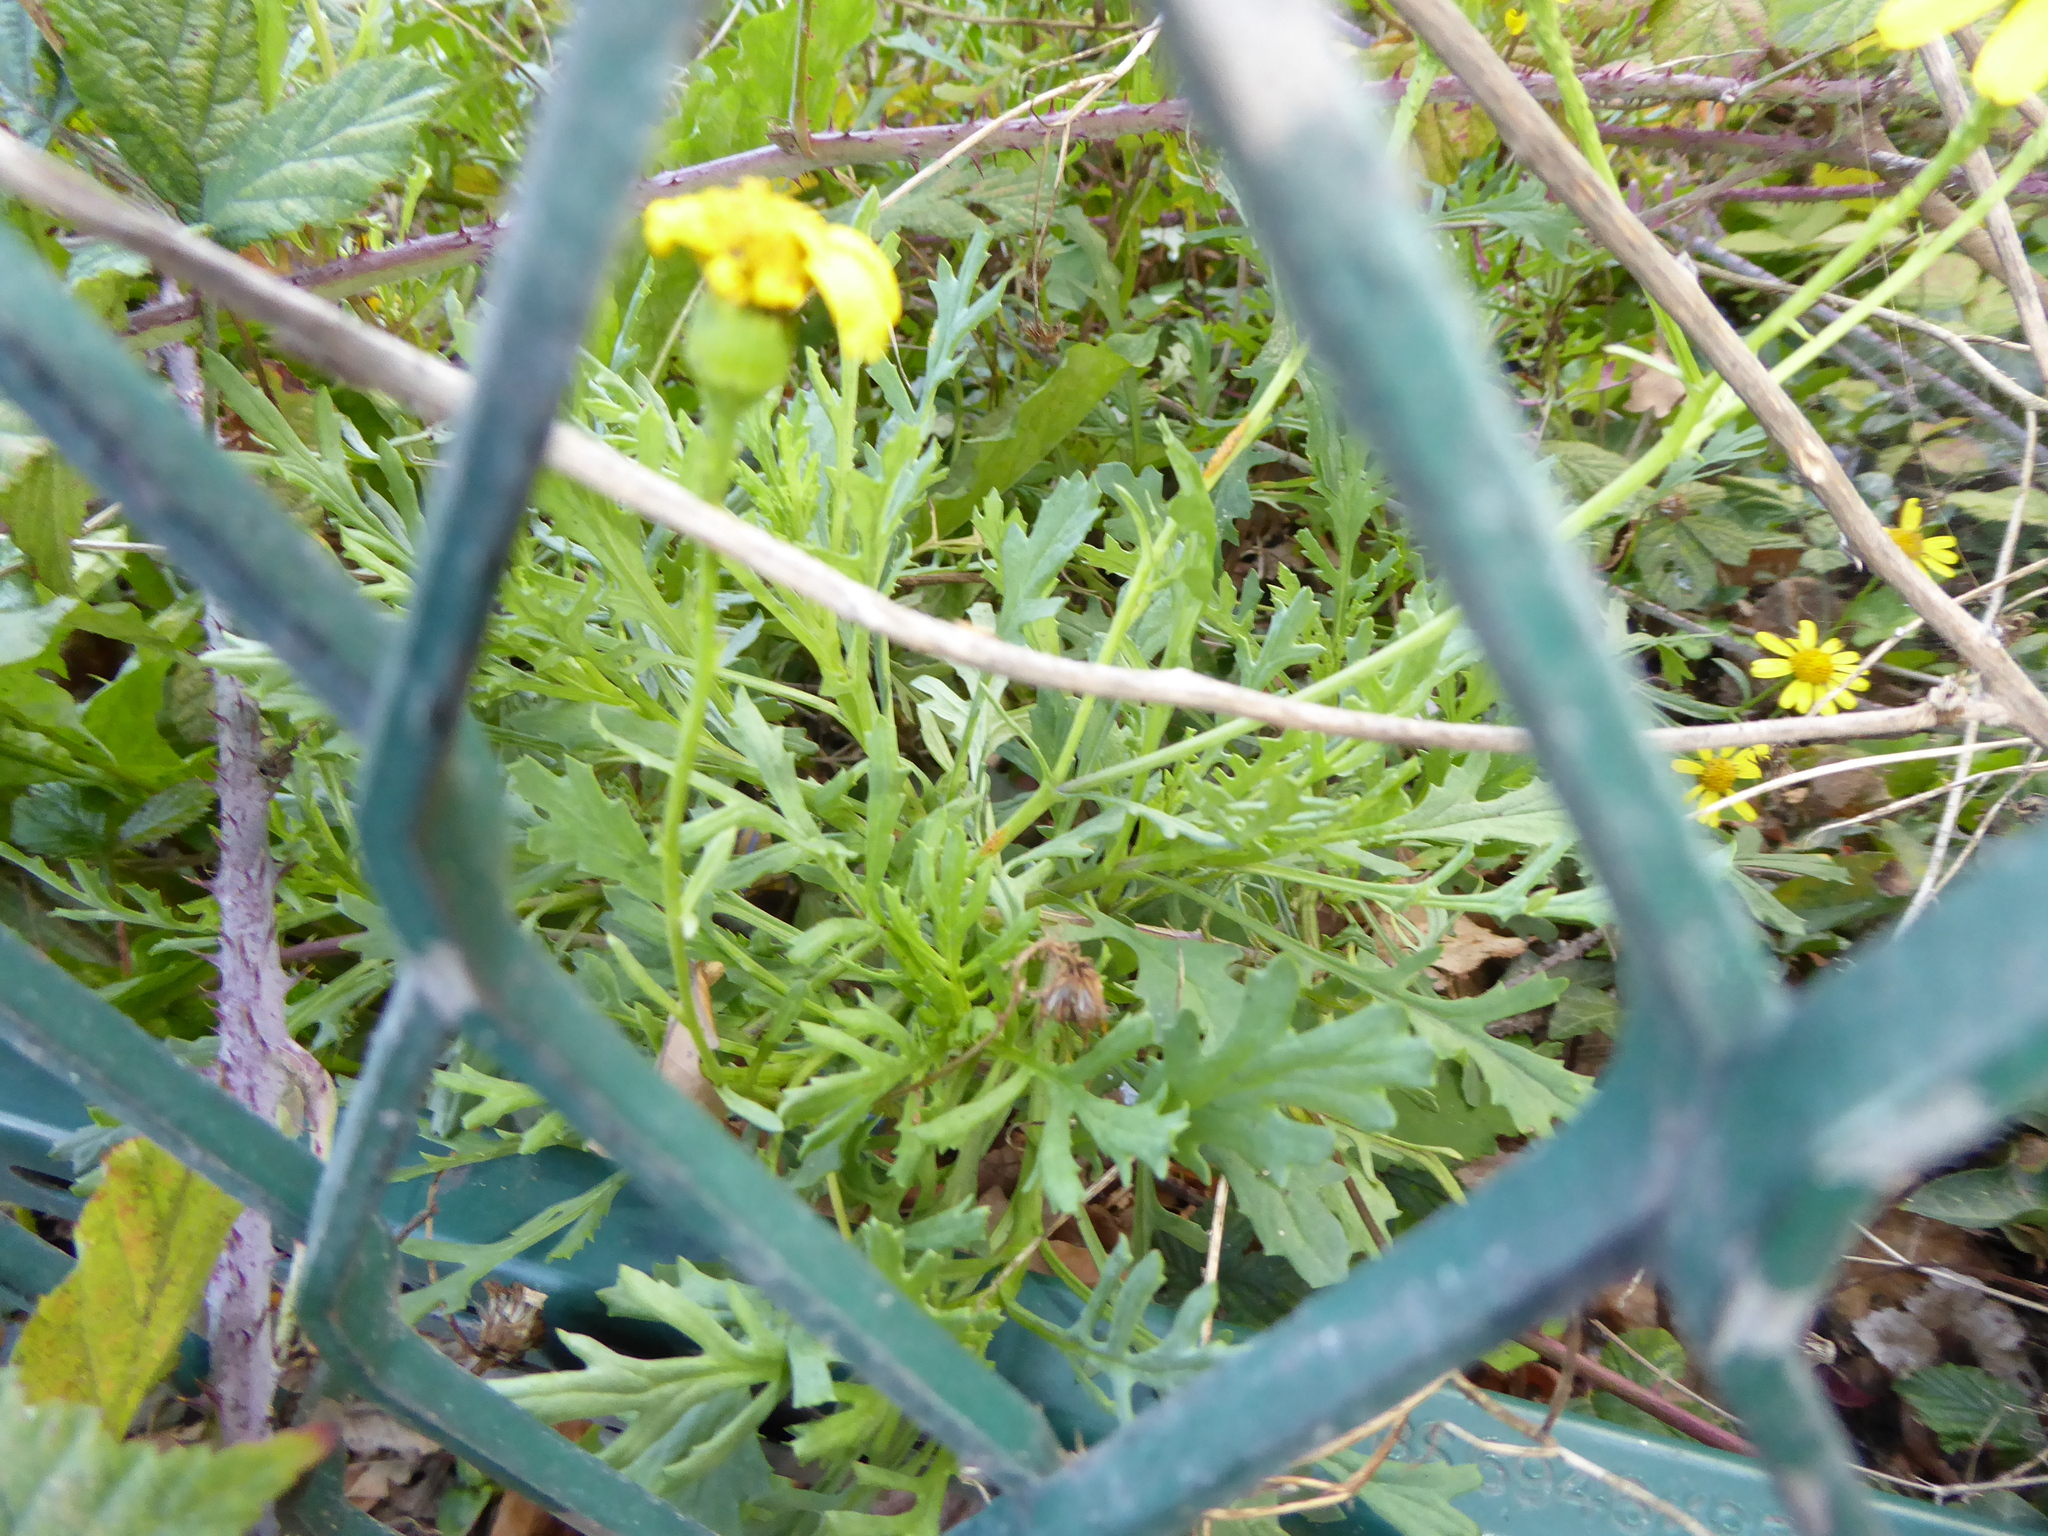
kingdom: Plantae
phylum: Tracheophyta
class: Magnoliopsida
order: Asterales
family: Asteraceae
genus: Senecio
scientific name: Senecio squalidus
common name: Oxford ragwort
